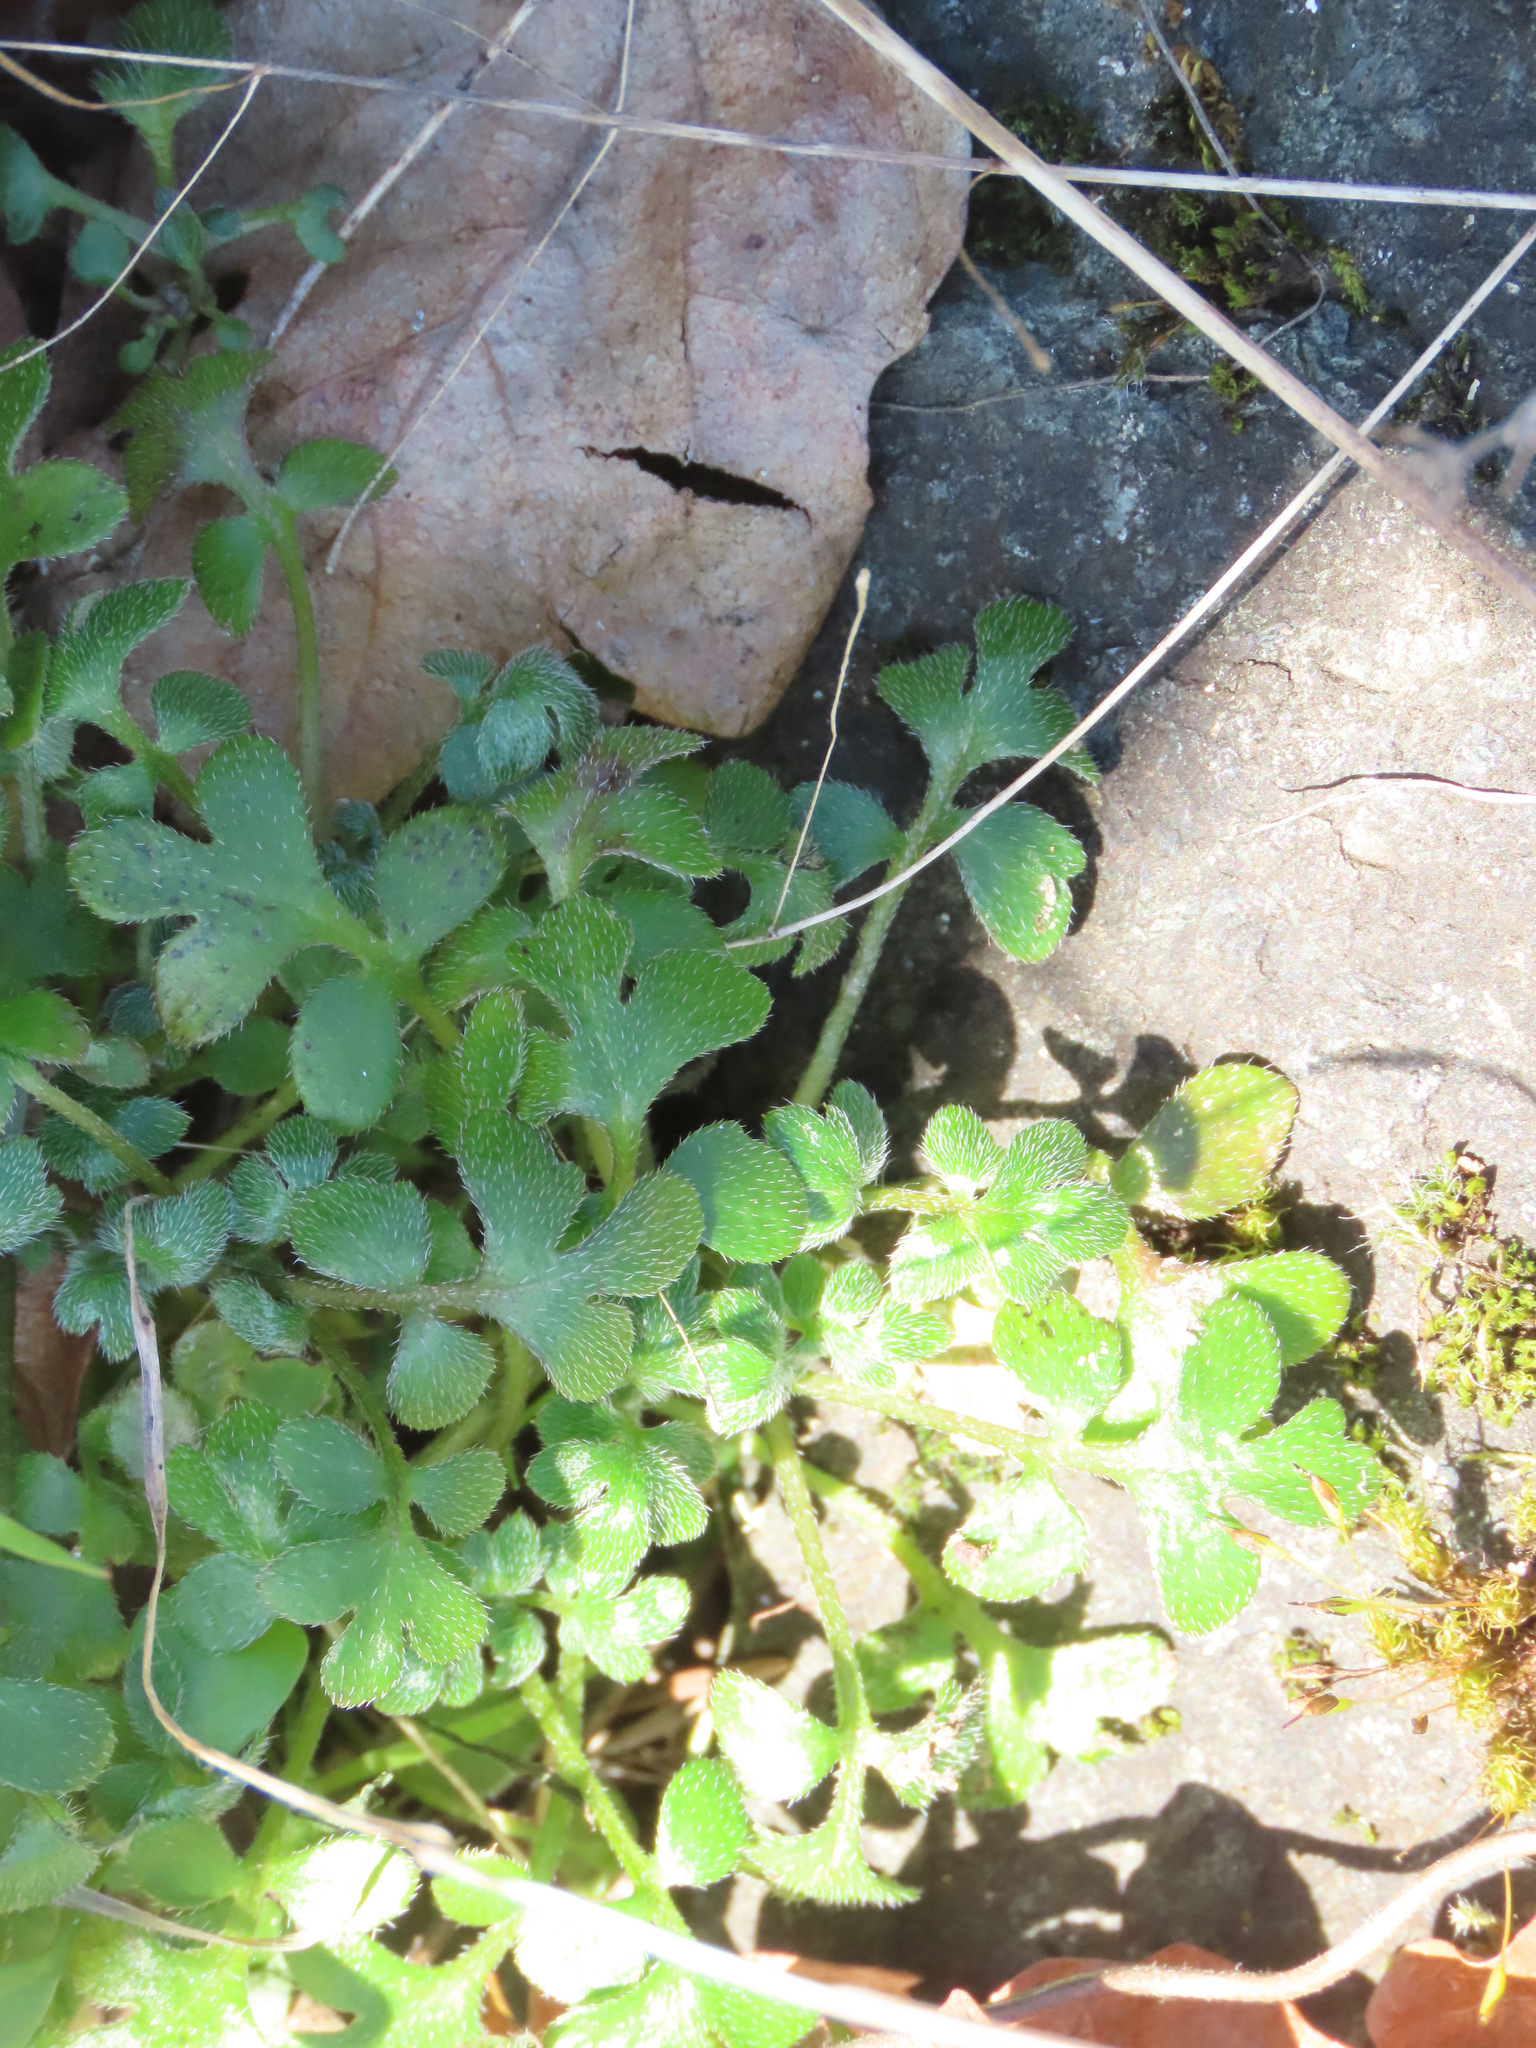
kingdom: Plantae
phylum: Tracheophyta
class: Magnoliopsida
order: Boraginales
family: Hydrophyllaceae
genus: Nemophila
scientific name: Nemophila parviflora
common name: Small-flowered baby-blue-eyes
